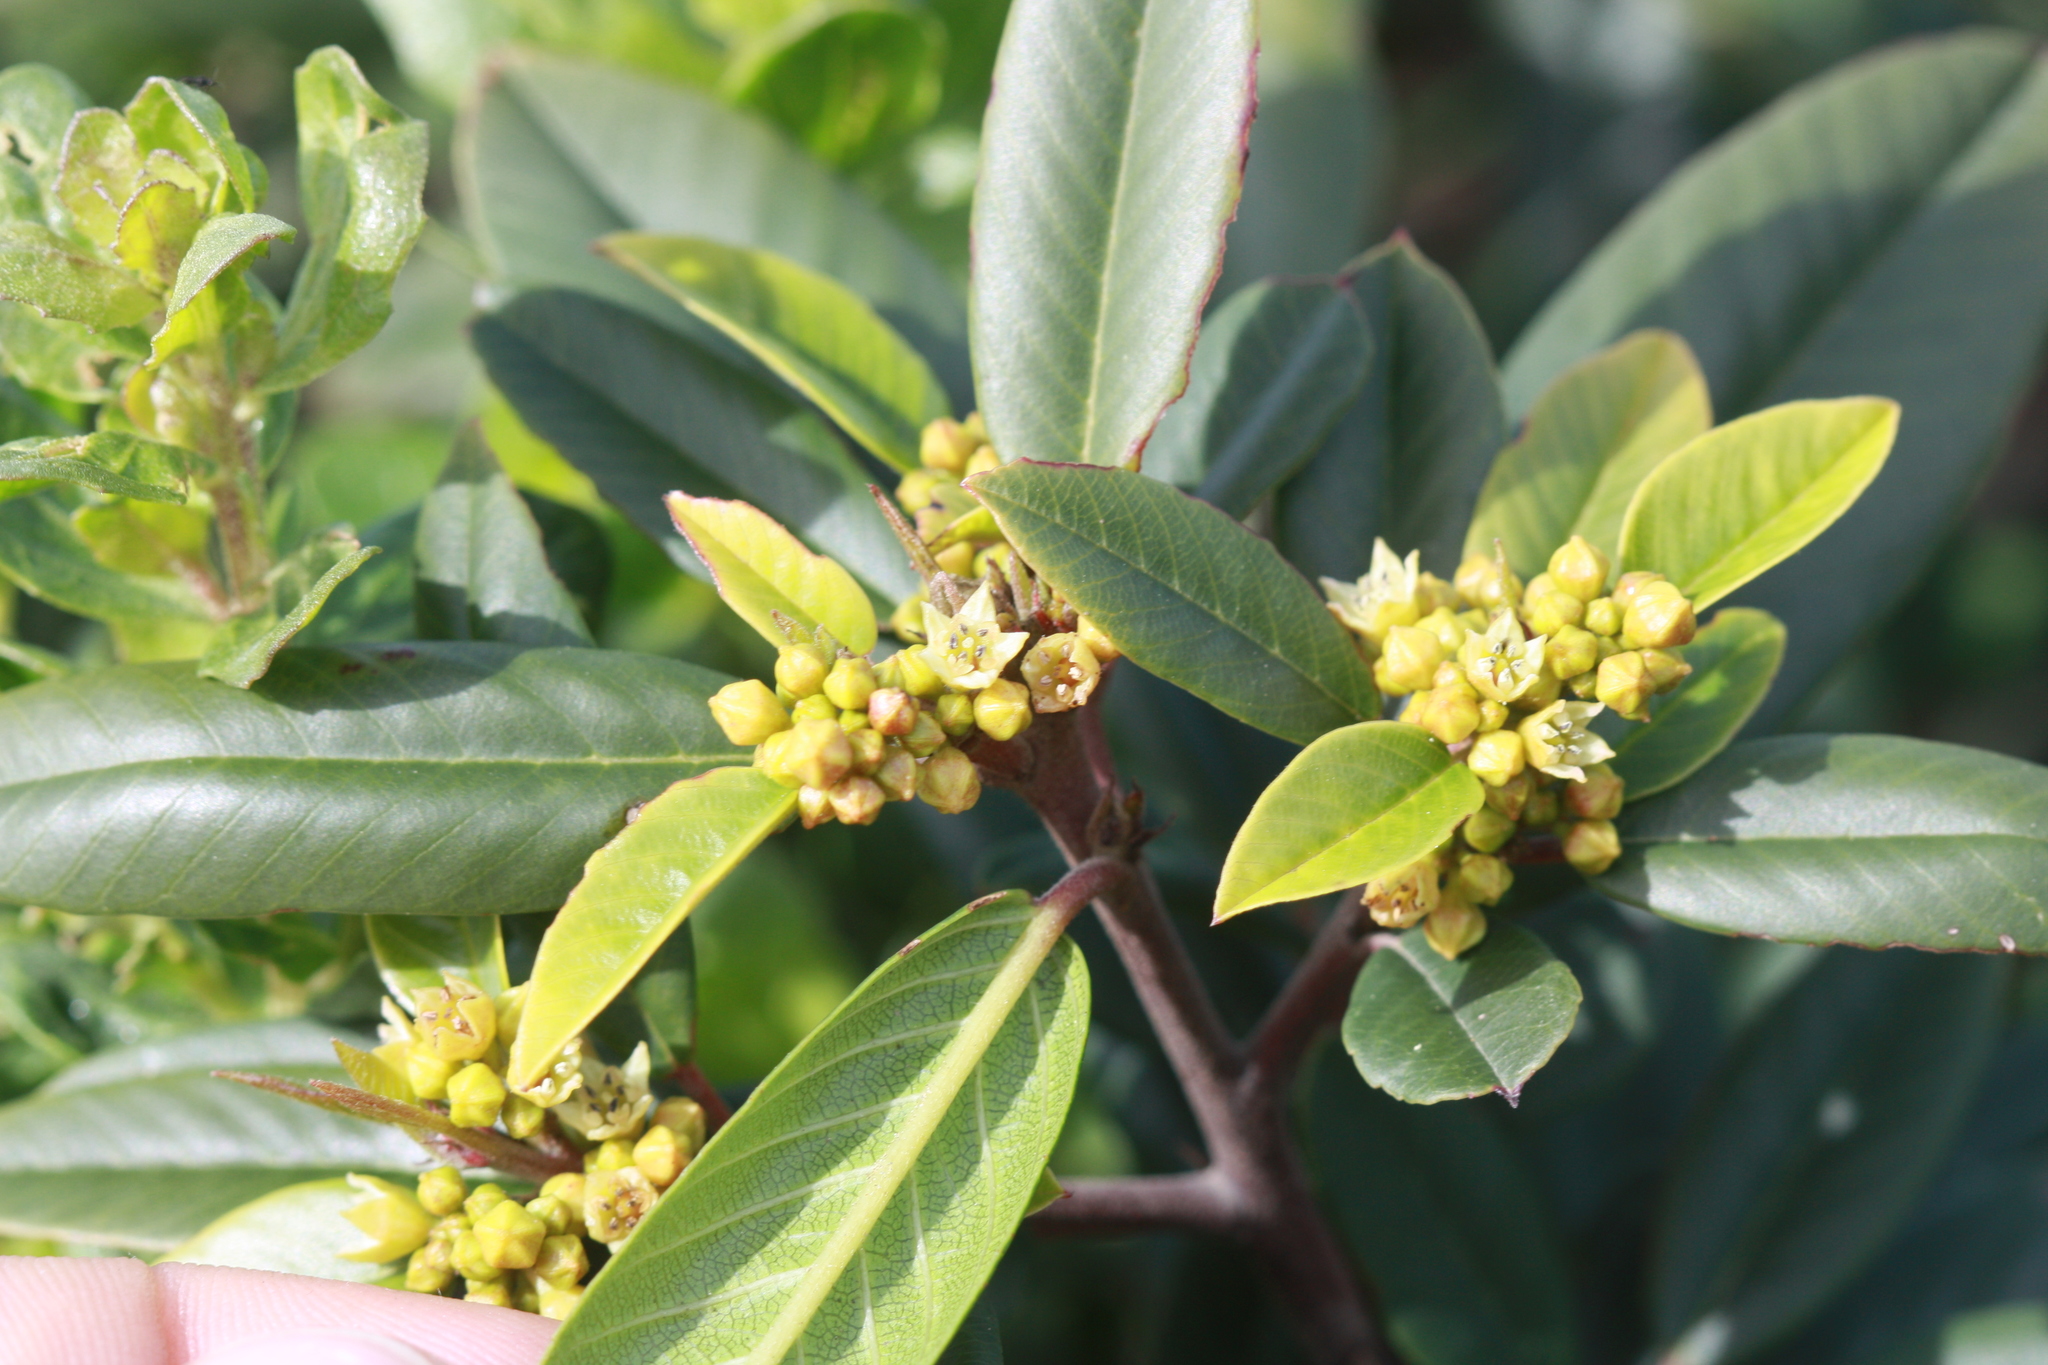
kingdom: Plantae
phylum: Tracheophyta
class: Magnoliopsida
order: Rosales
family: Rhamnaceae
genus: Frangula
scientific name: Frangula californica
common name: California buckthorn
